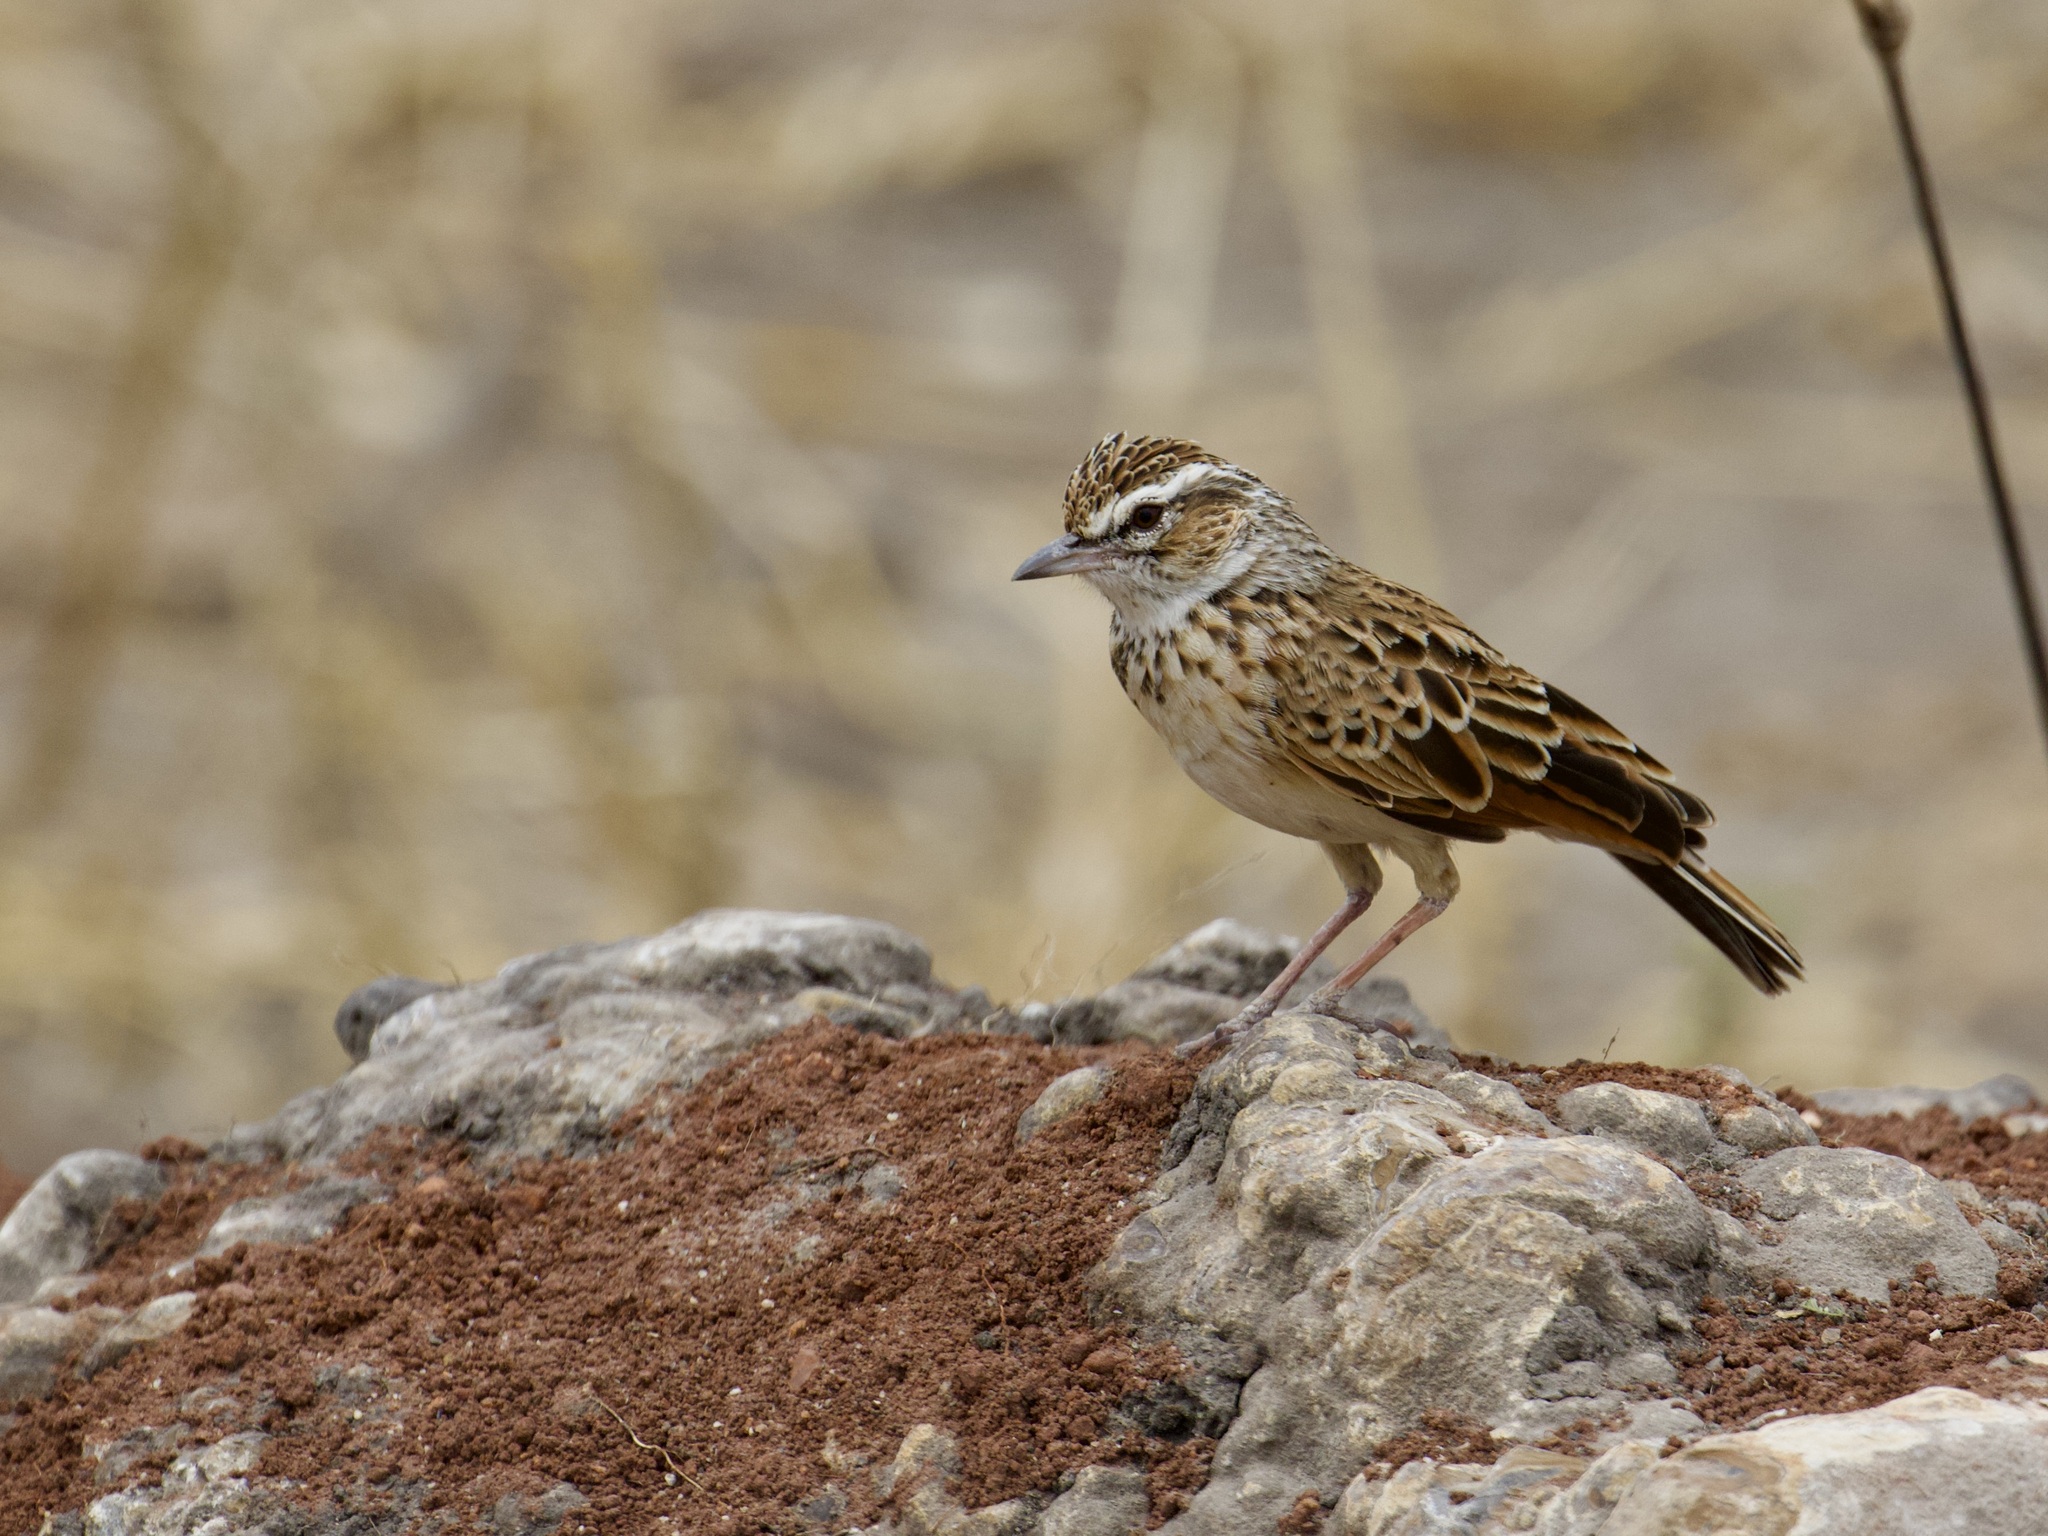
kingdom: Animalia
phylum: Chordata
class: Aves
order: Passeriformes
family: Alaudidae
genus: Calendulauda
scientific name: Calendulauda africanoides
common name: Fawn-colored lark
